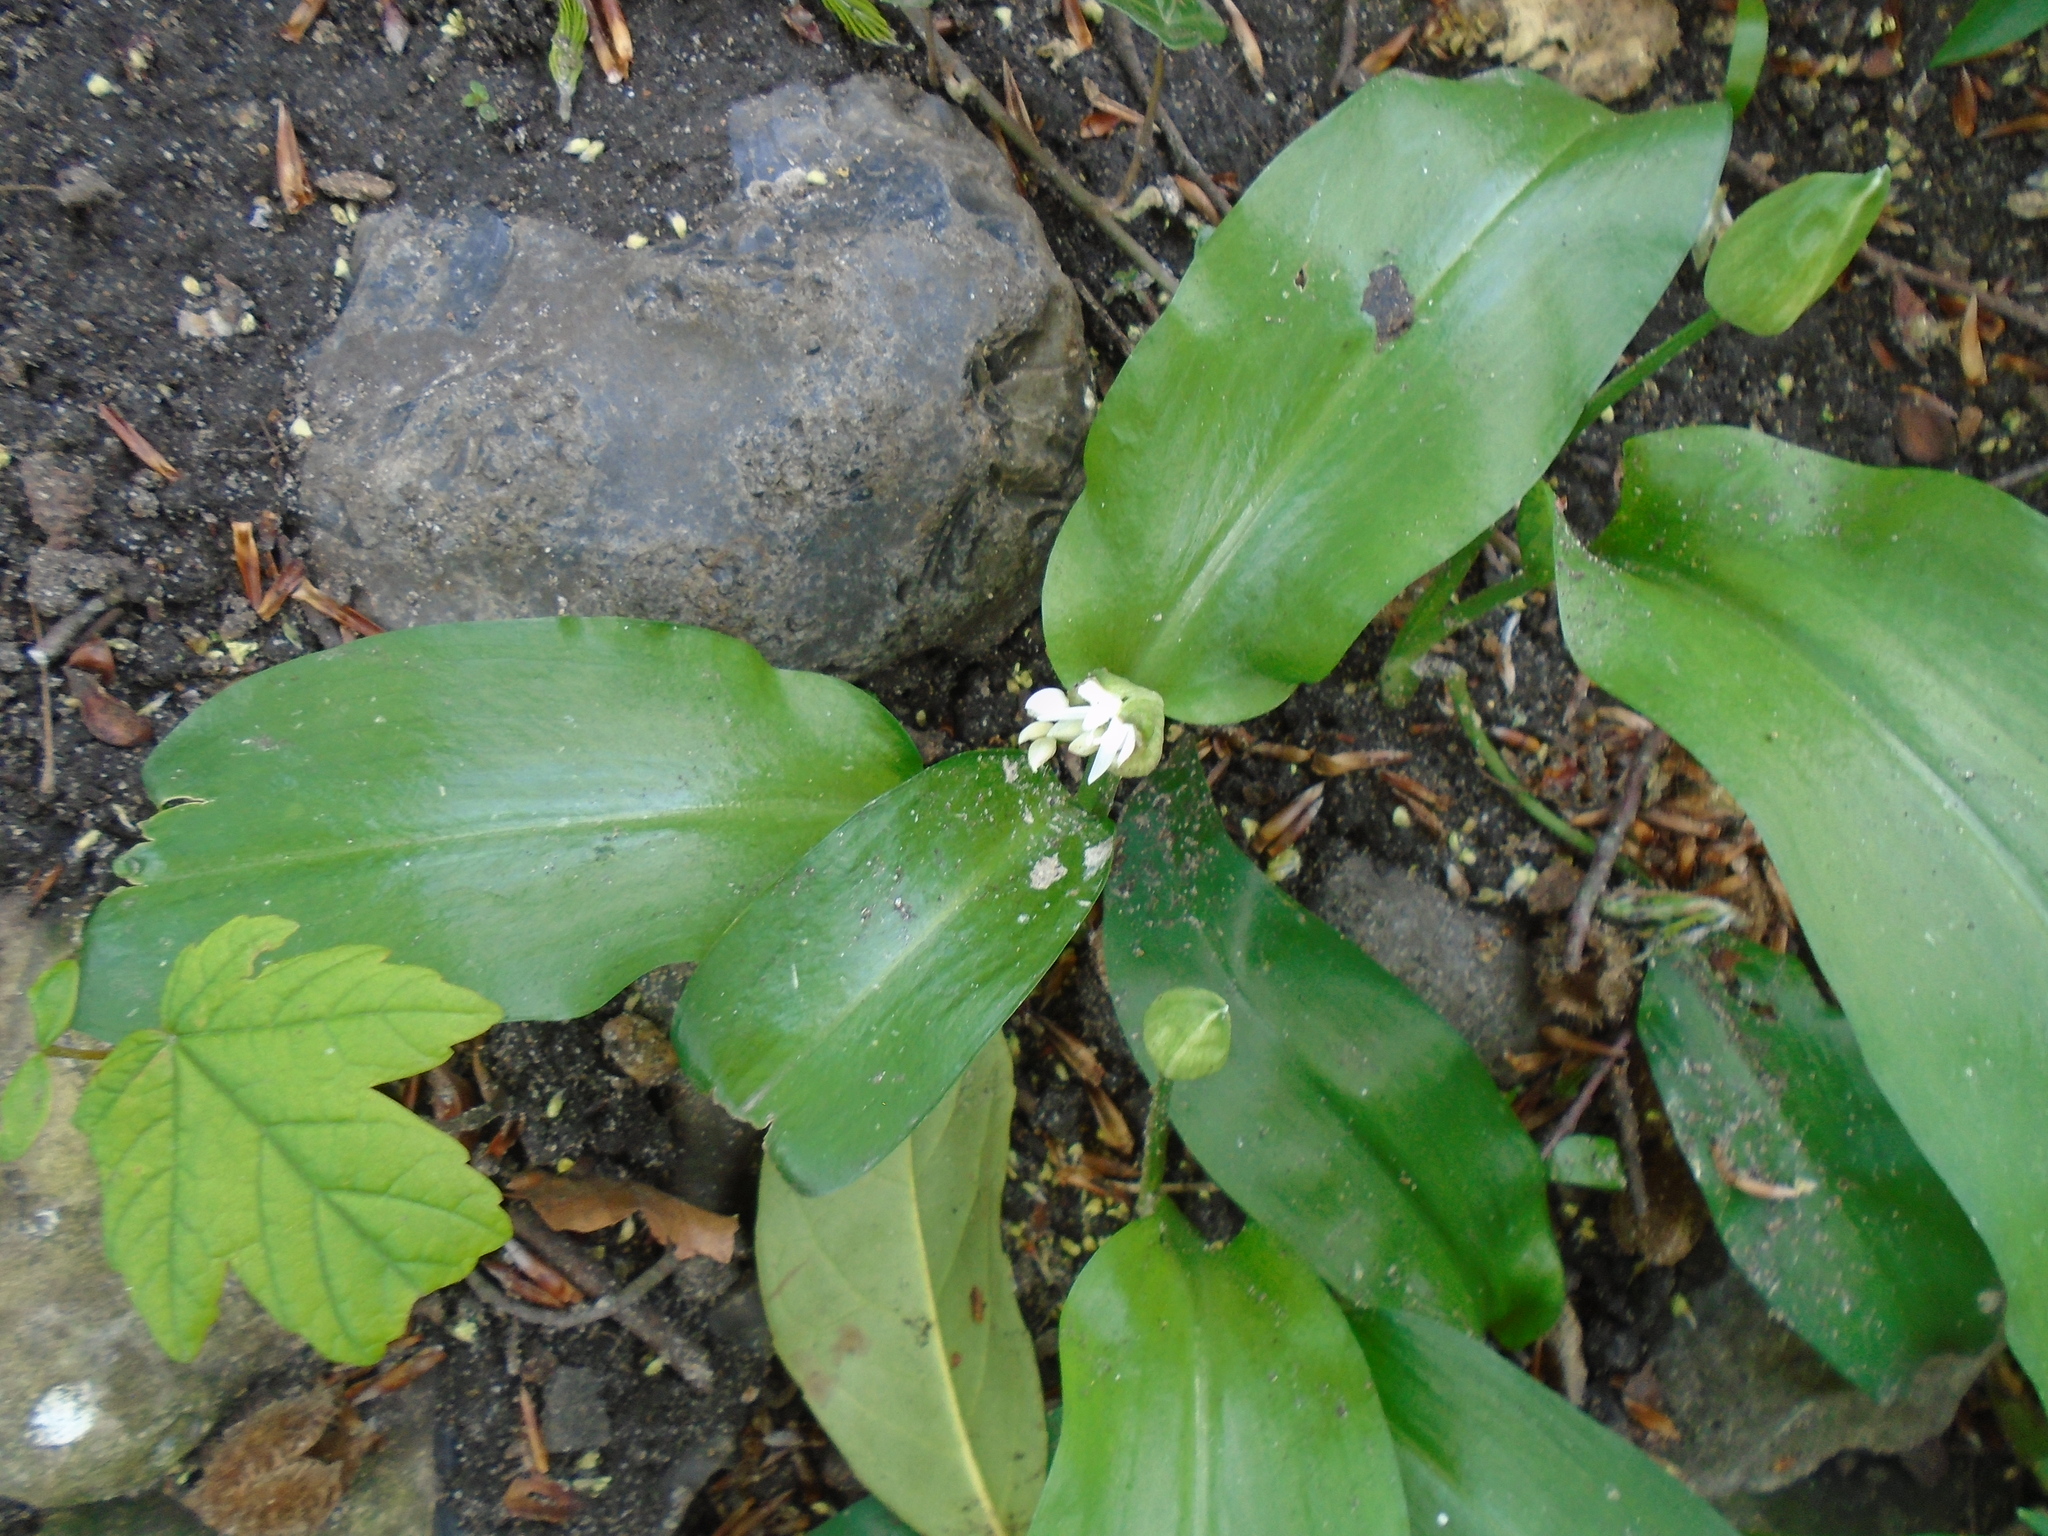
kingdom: Plantae
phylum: Tracheophyta
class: Liliopsida
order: Asparagales
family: Amaryllidaceae
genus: Allium
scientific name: Allium ursinum
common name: Ramsons
